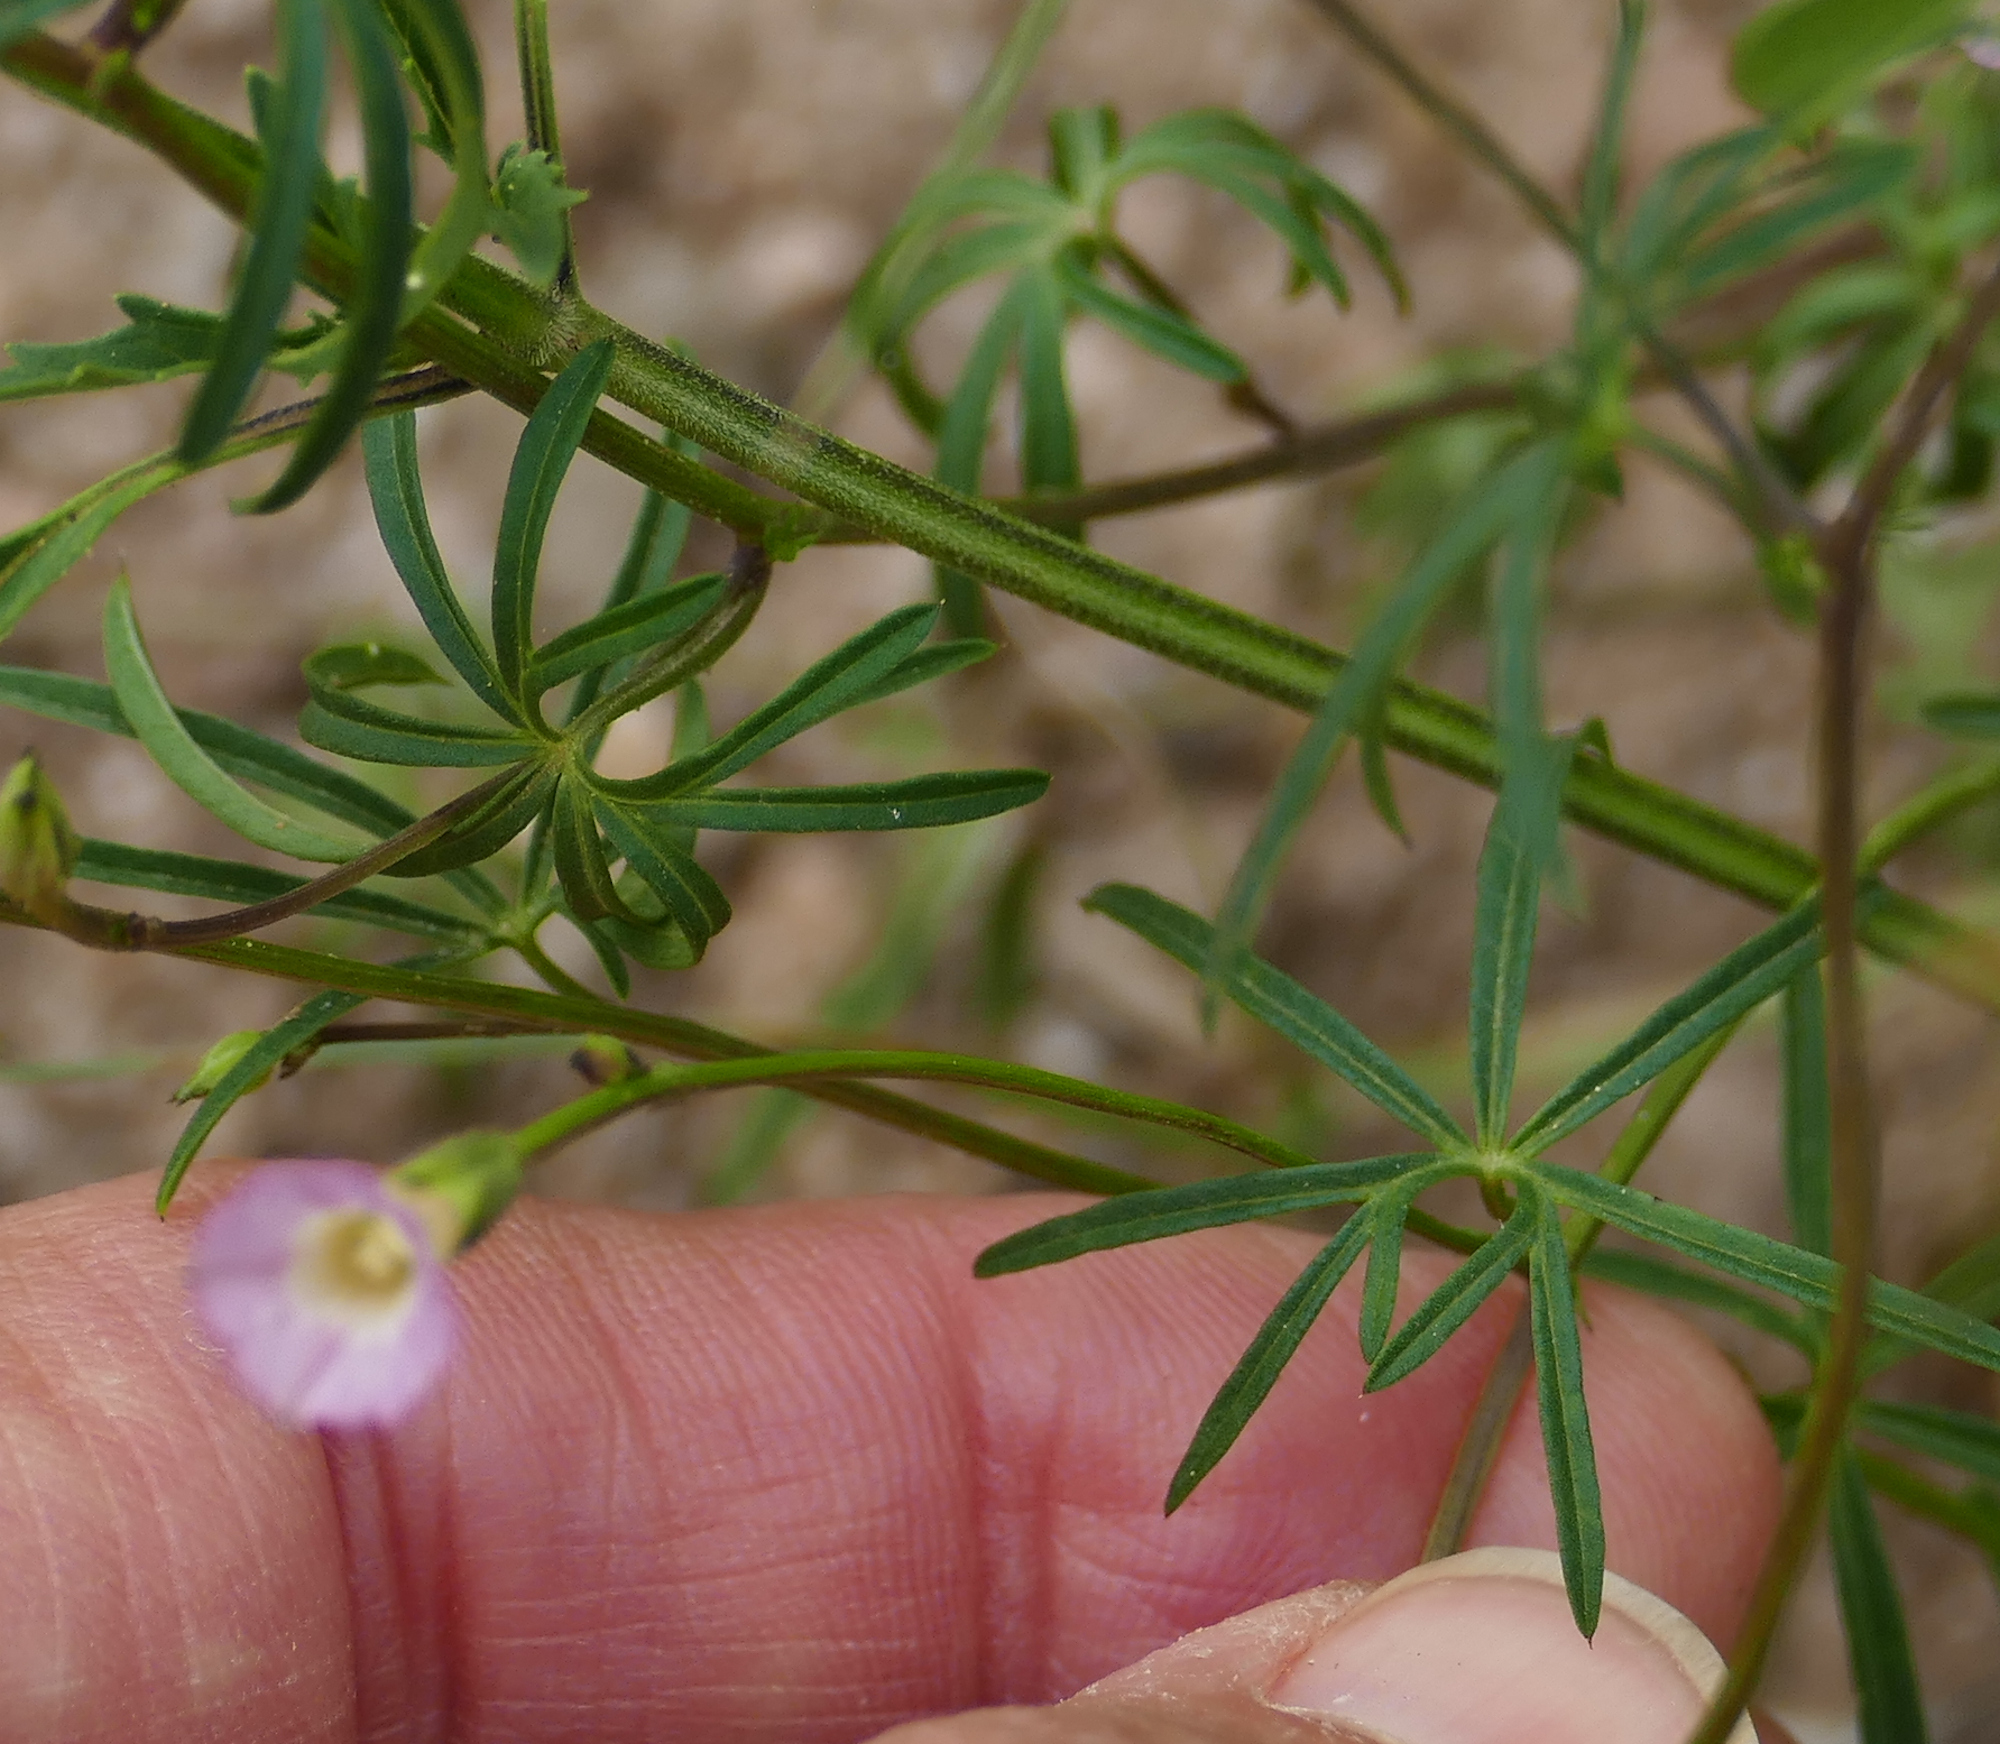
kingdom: Plantae
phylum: Tracheophyta
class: Magnoliopsida
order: Solanales
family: Convolvulaceae
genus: Ipomoea
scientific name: Ipomoea costellata
